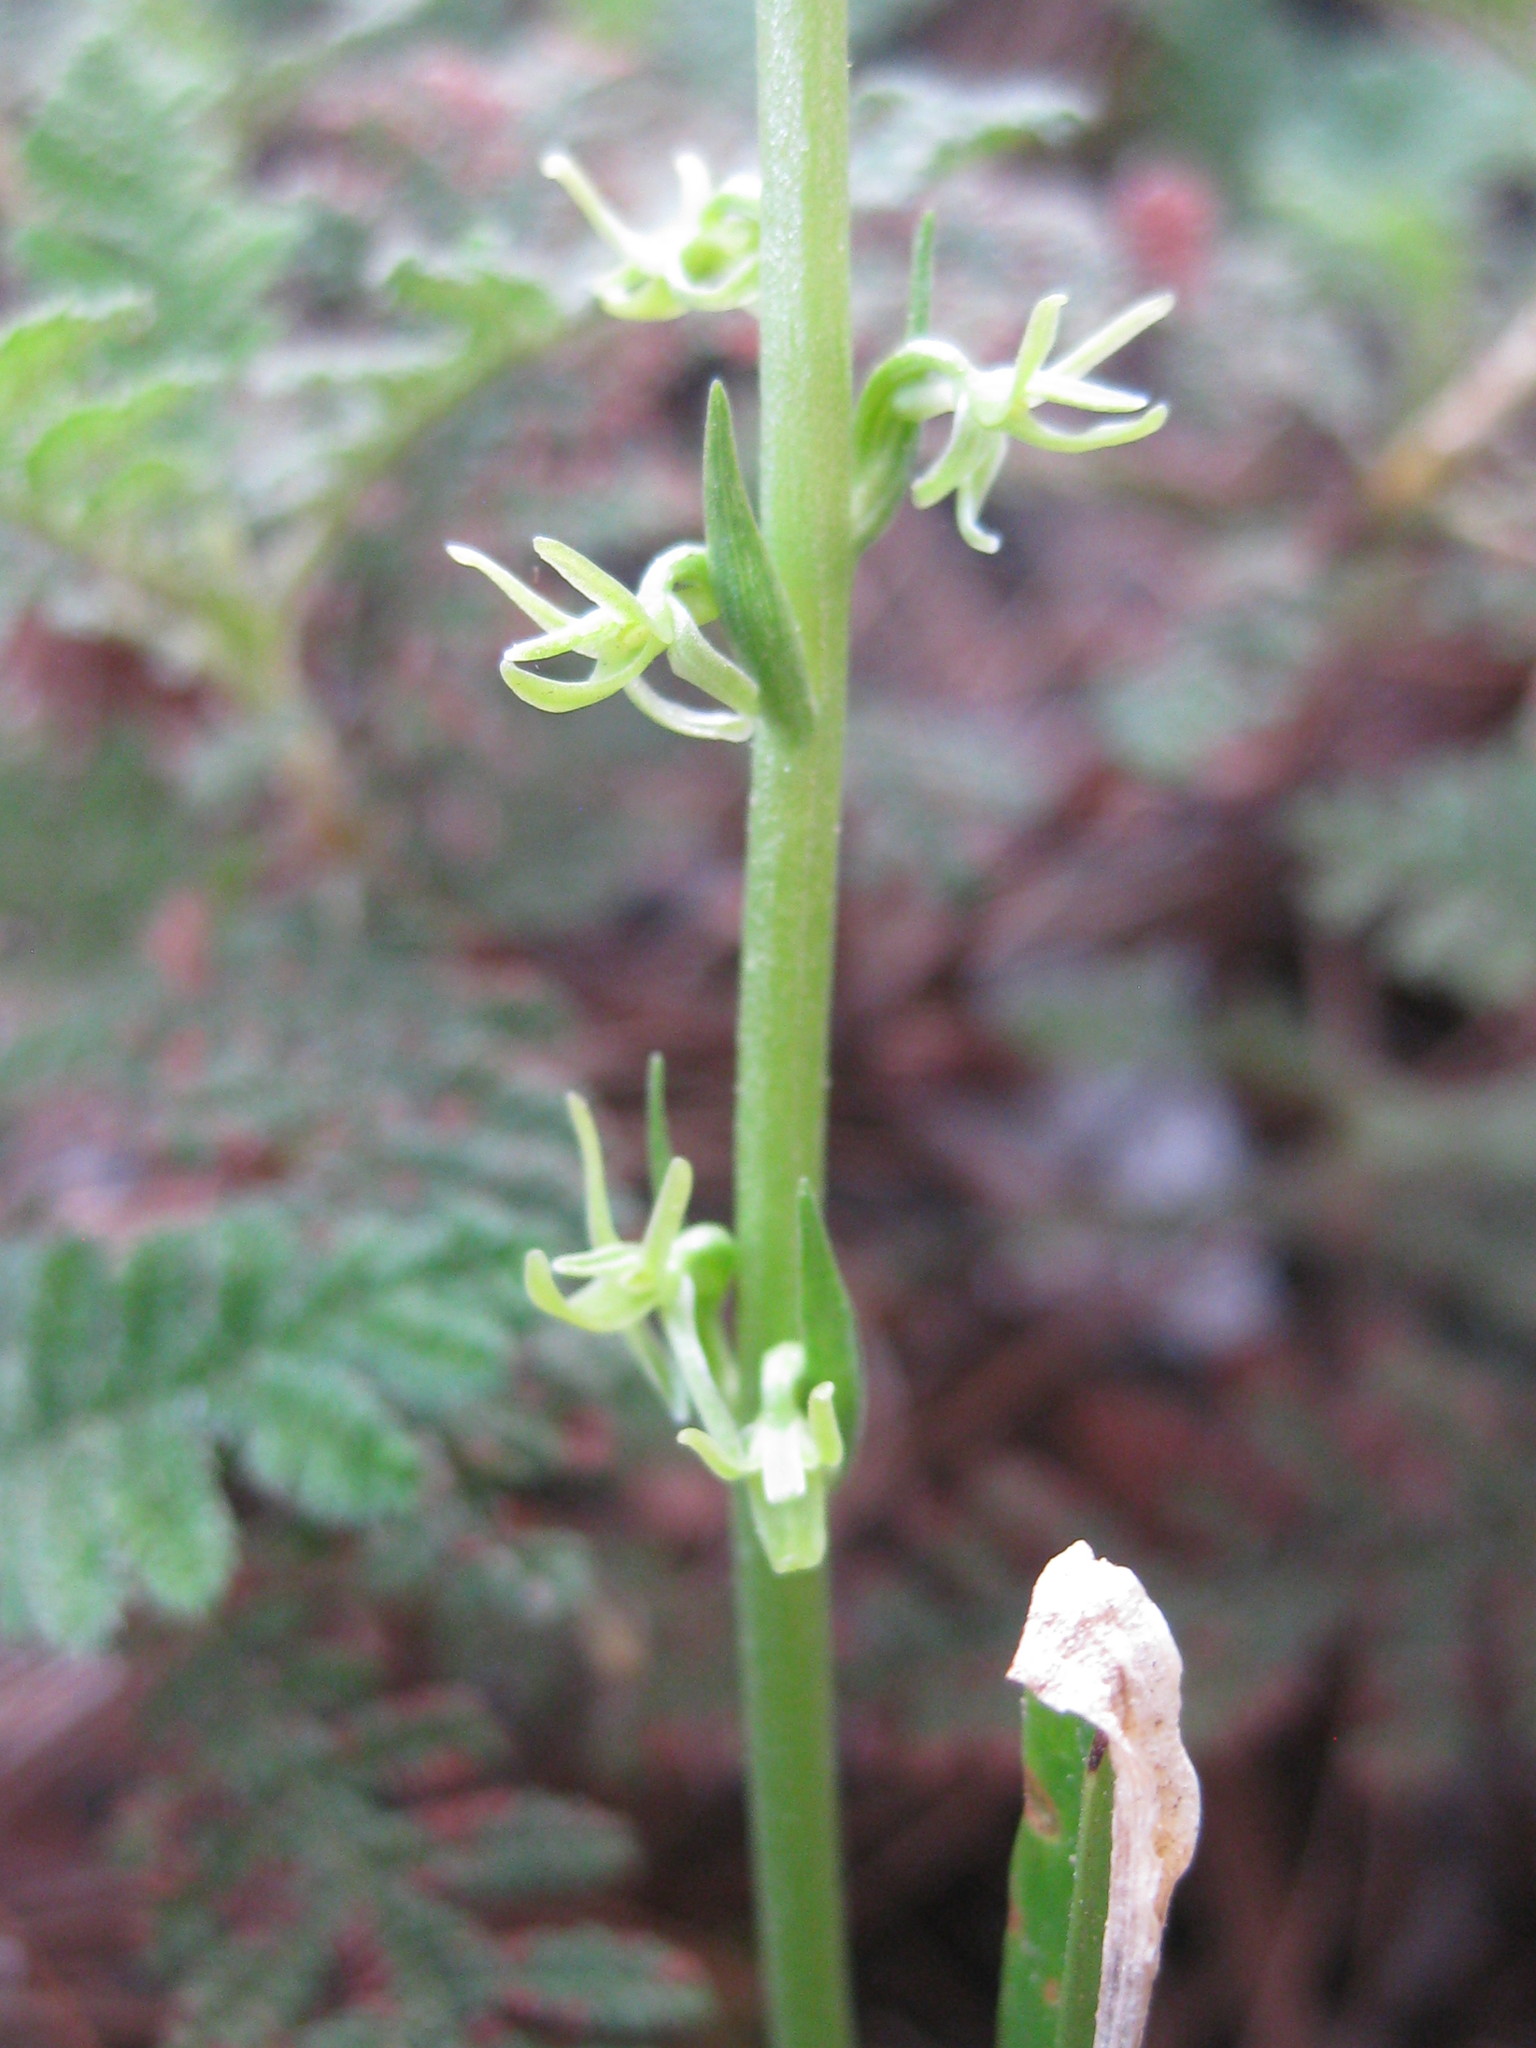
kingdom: Plantae
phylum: Tracheophyta
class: Liliopsida
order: Asparagales
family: Orchidaceae
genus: Platanthera
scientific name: Platanthera leptopetala
